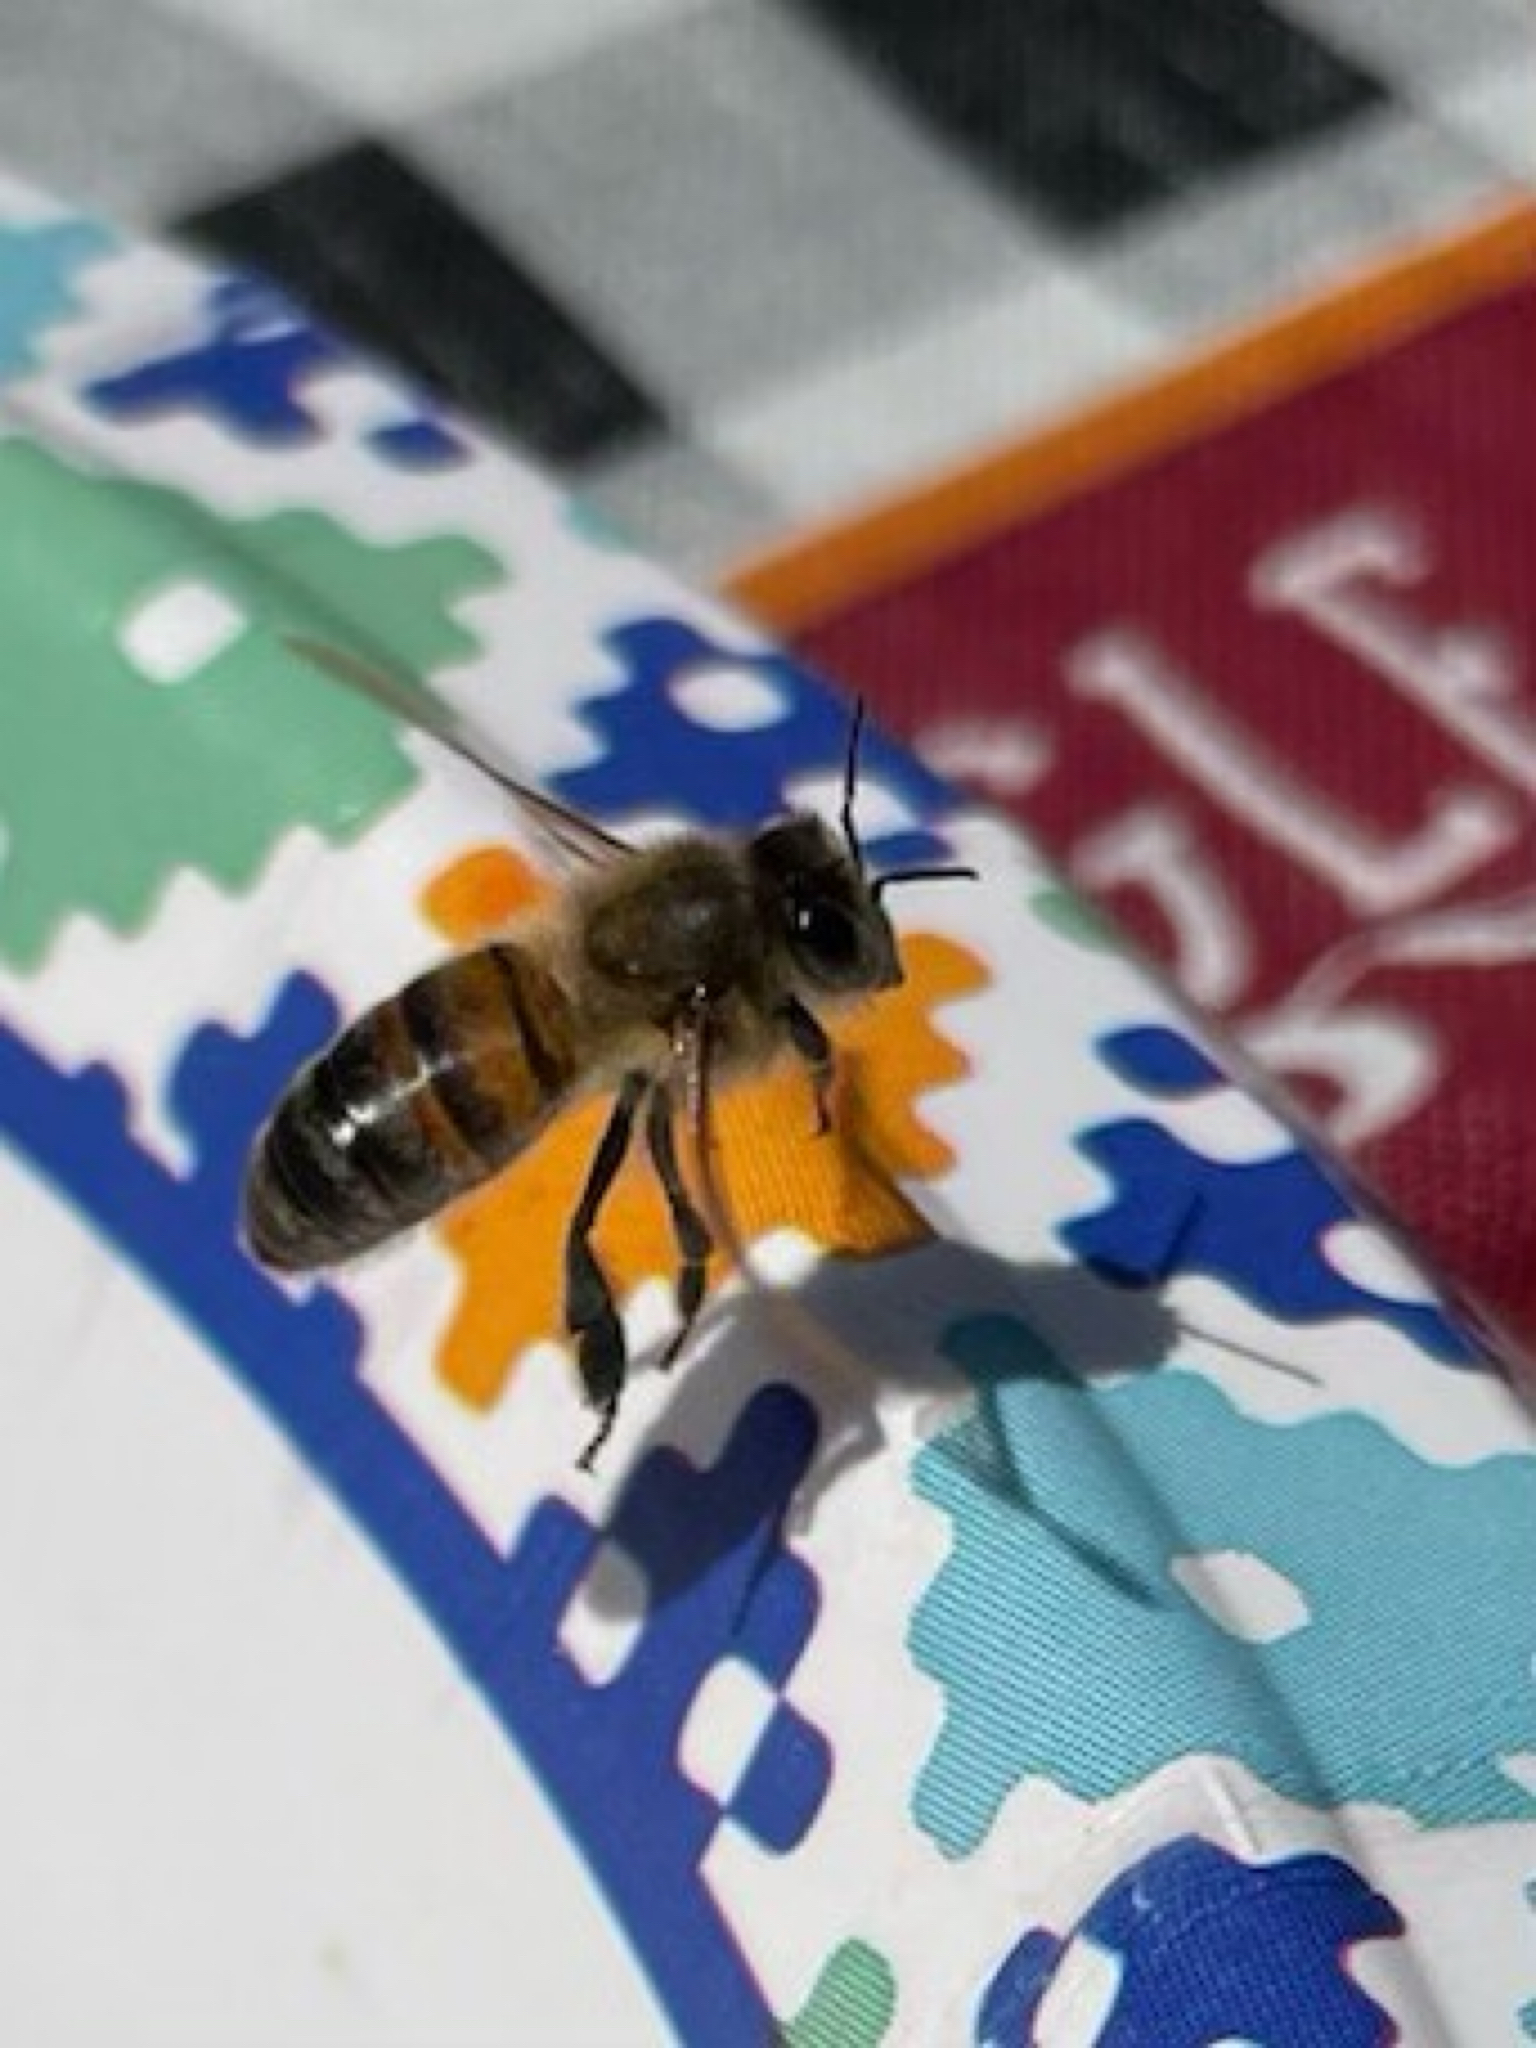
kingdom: Animalia
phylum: Arthropoda
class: Insecta
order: Hymenoptera
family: Apidae
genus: Apis
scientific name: Apis mellifera
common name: Honey bee
